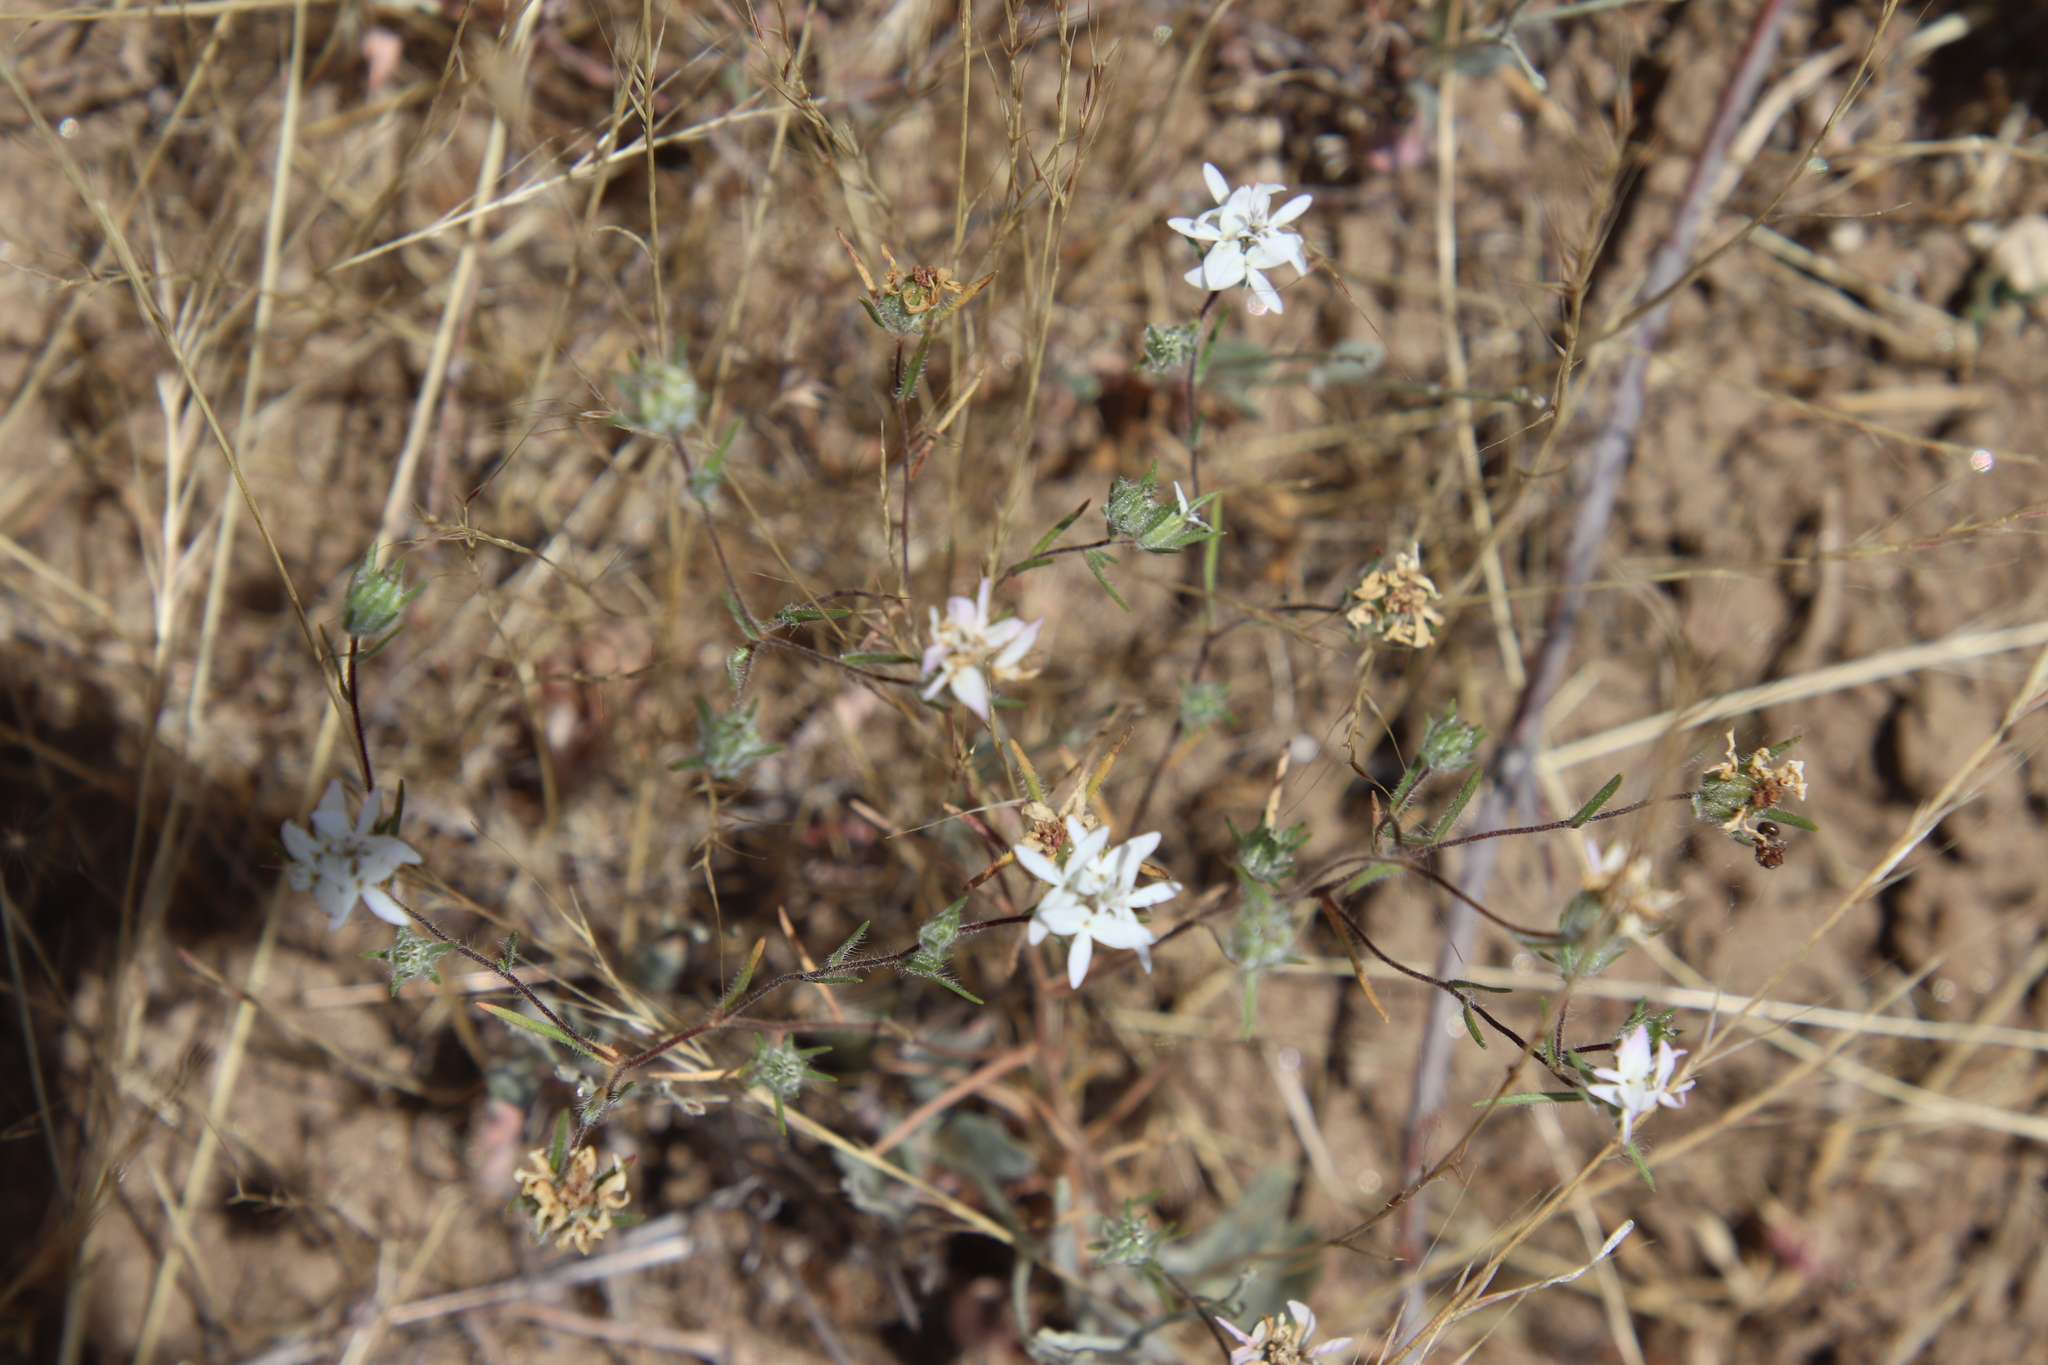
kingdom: Plantae
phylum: Tracheophyta
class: Magnoliopsida
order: Asterales
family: Asteraceae
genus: Osmadenia
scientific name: Osmadenia tenella
